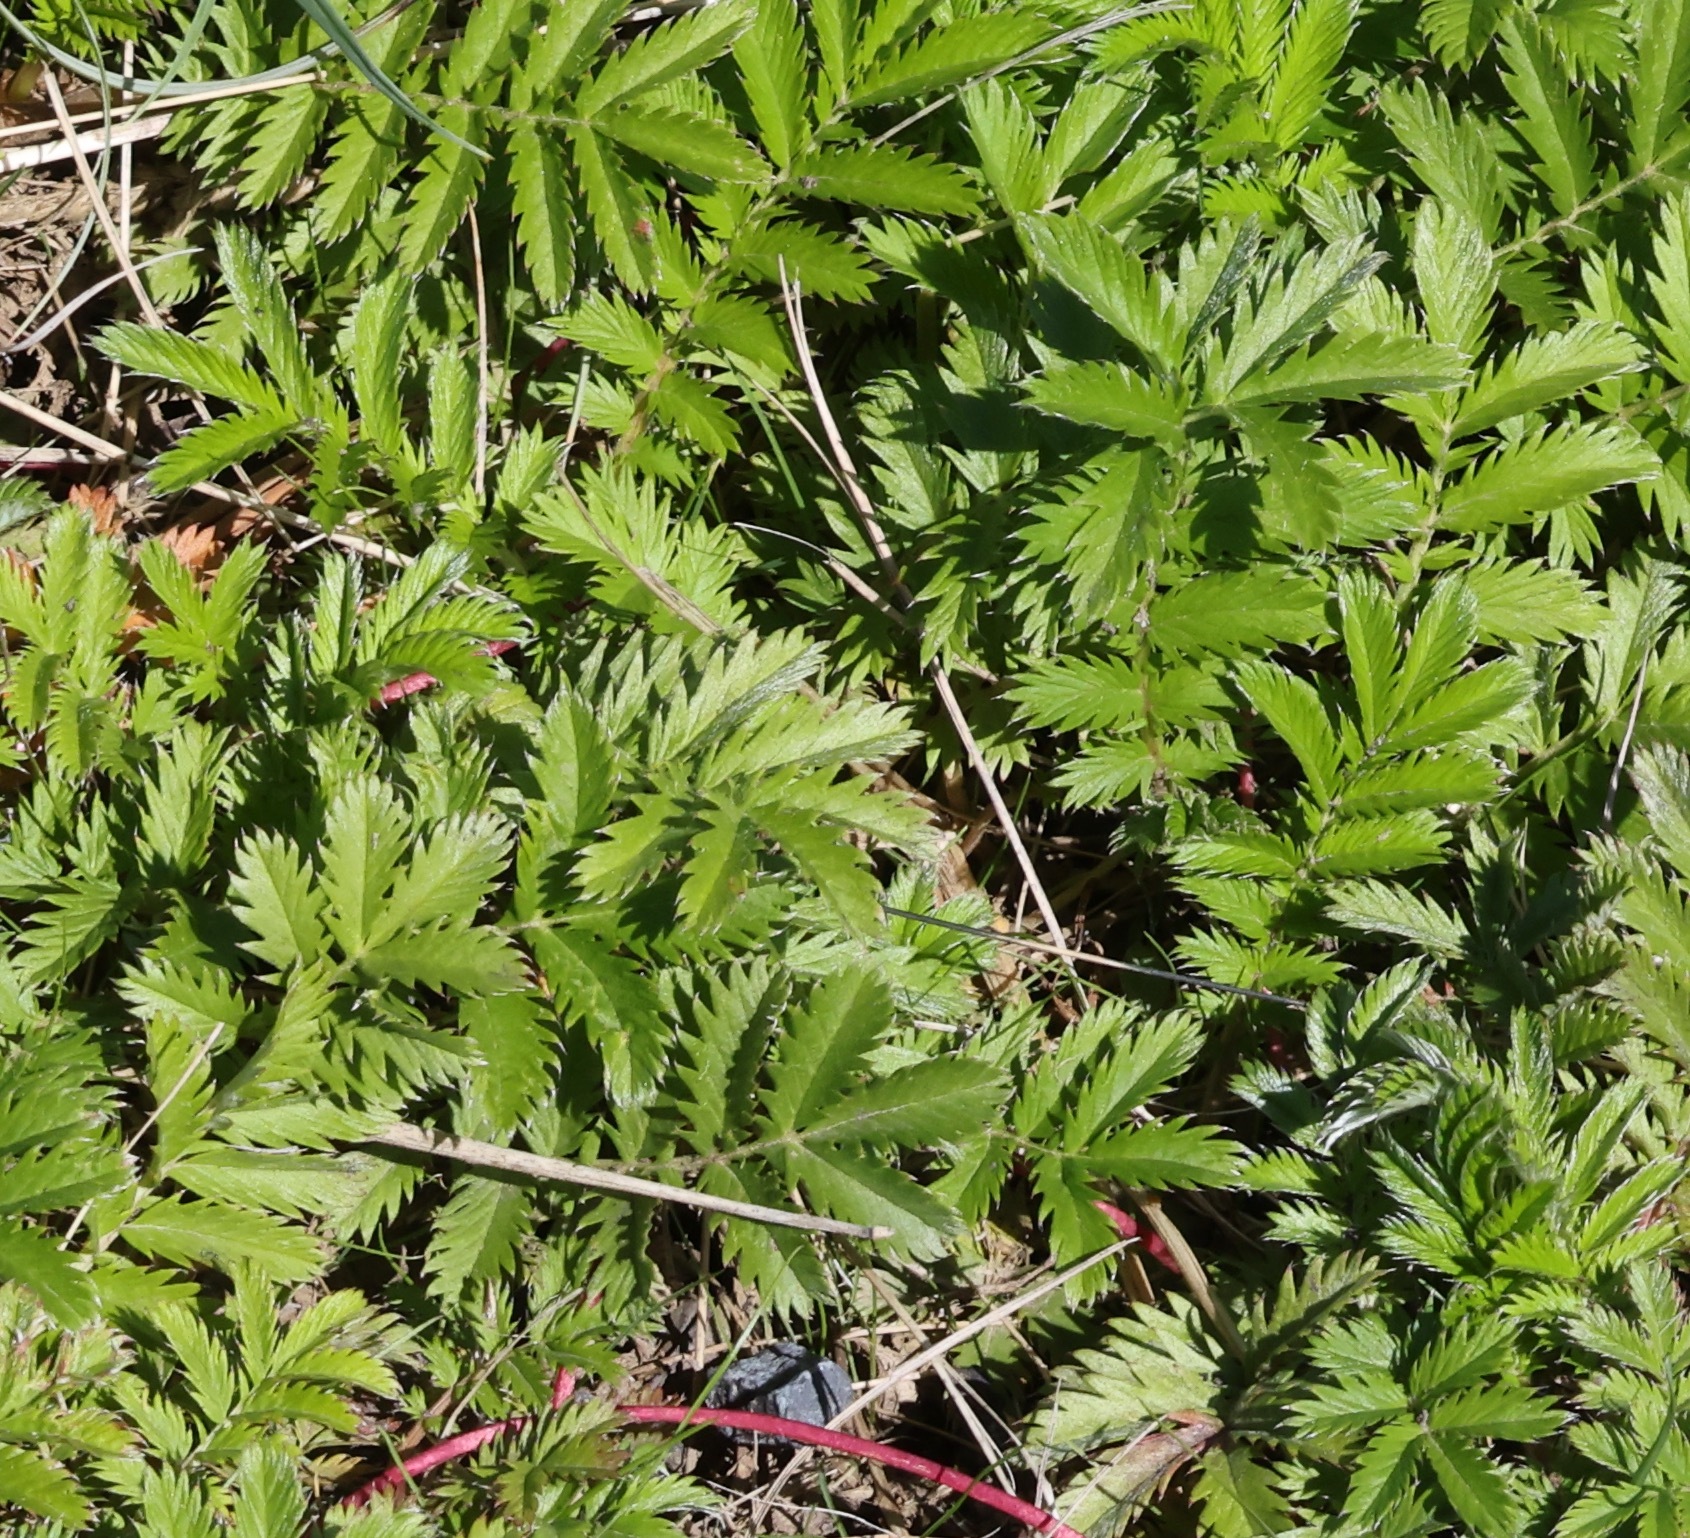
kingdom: Plantae
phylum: Tracheophyta
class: Magnoliopsida
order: Rosales
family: Rosaceae
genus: Argentina
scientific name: Argentina anserina
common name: Common silverweed
